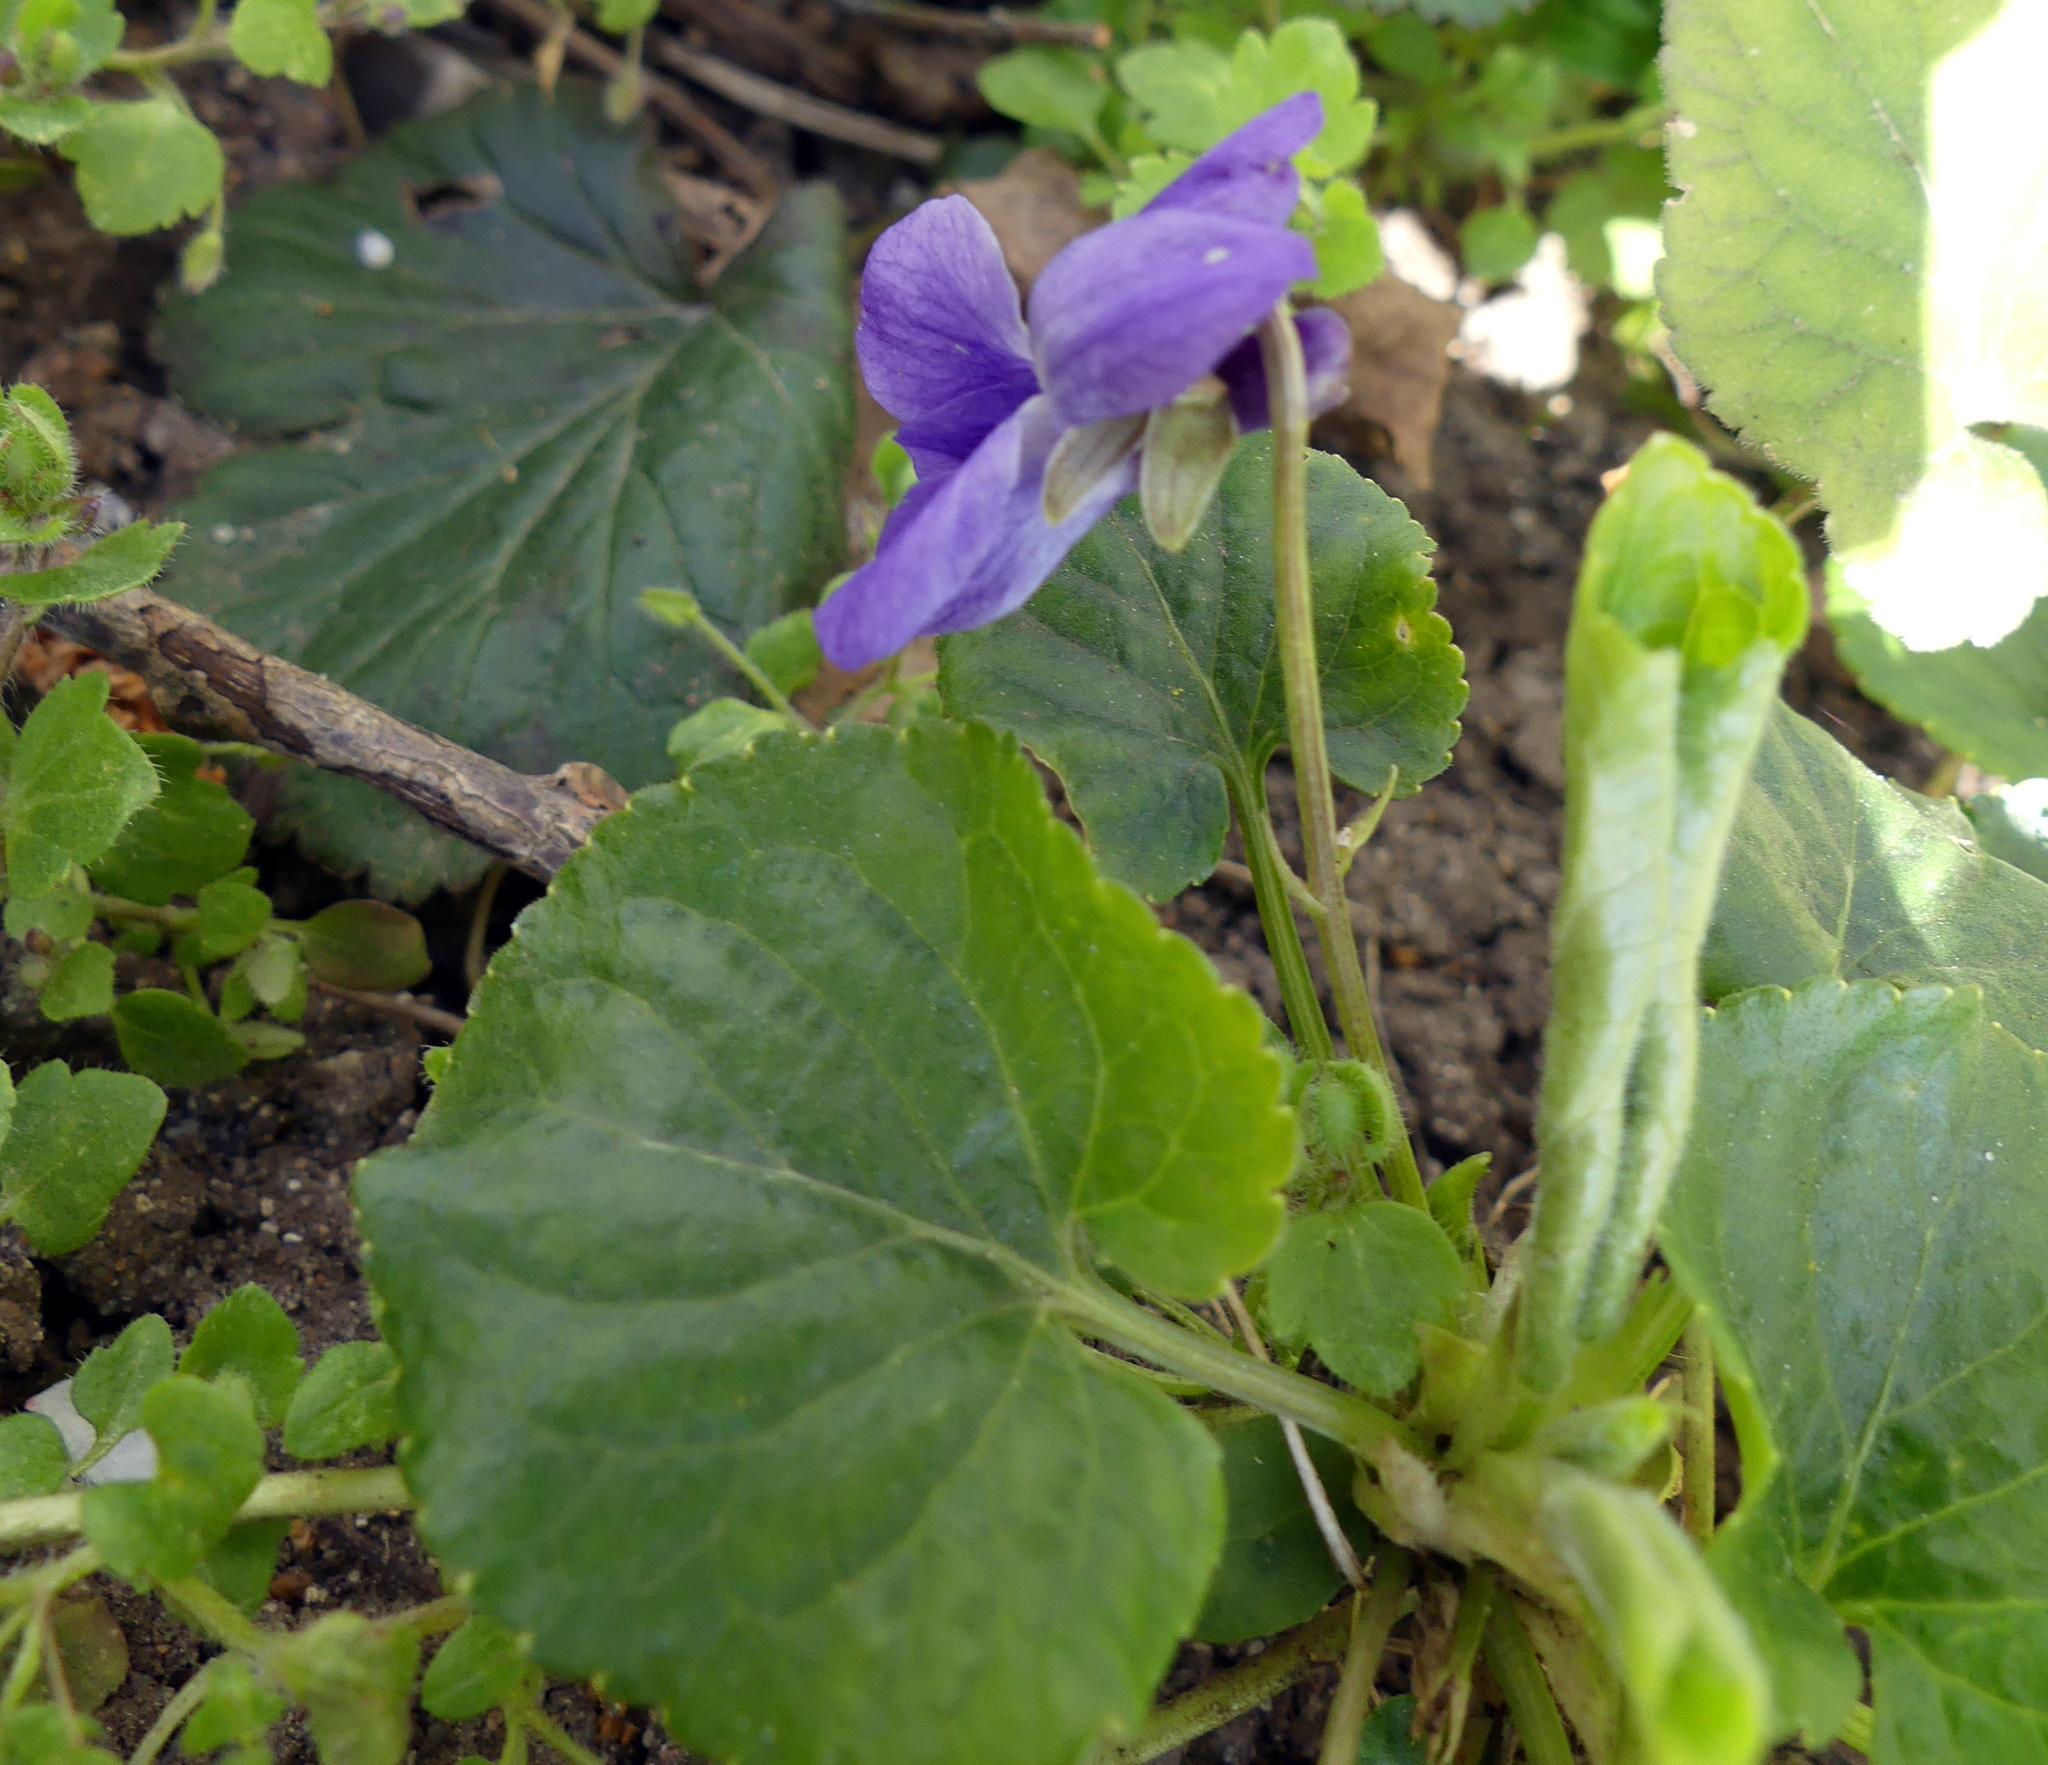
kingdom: Plantae
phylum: Tracheophyta
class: Magnoliopsida
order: Malpighiales
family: Violaceae
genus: Viola
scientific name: Viola odorata
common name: Sweet violet
